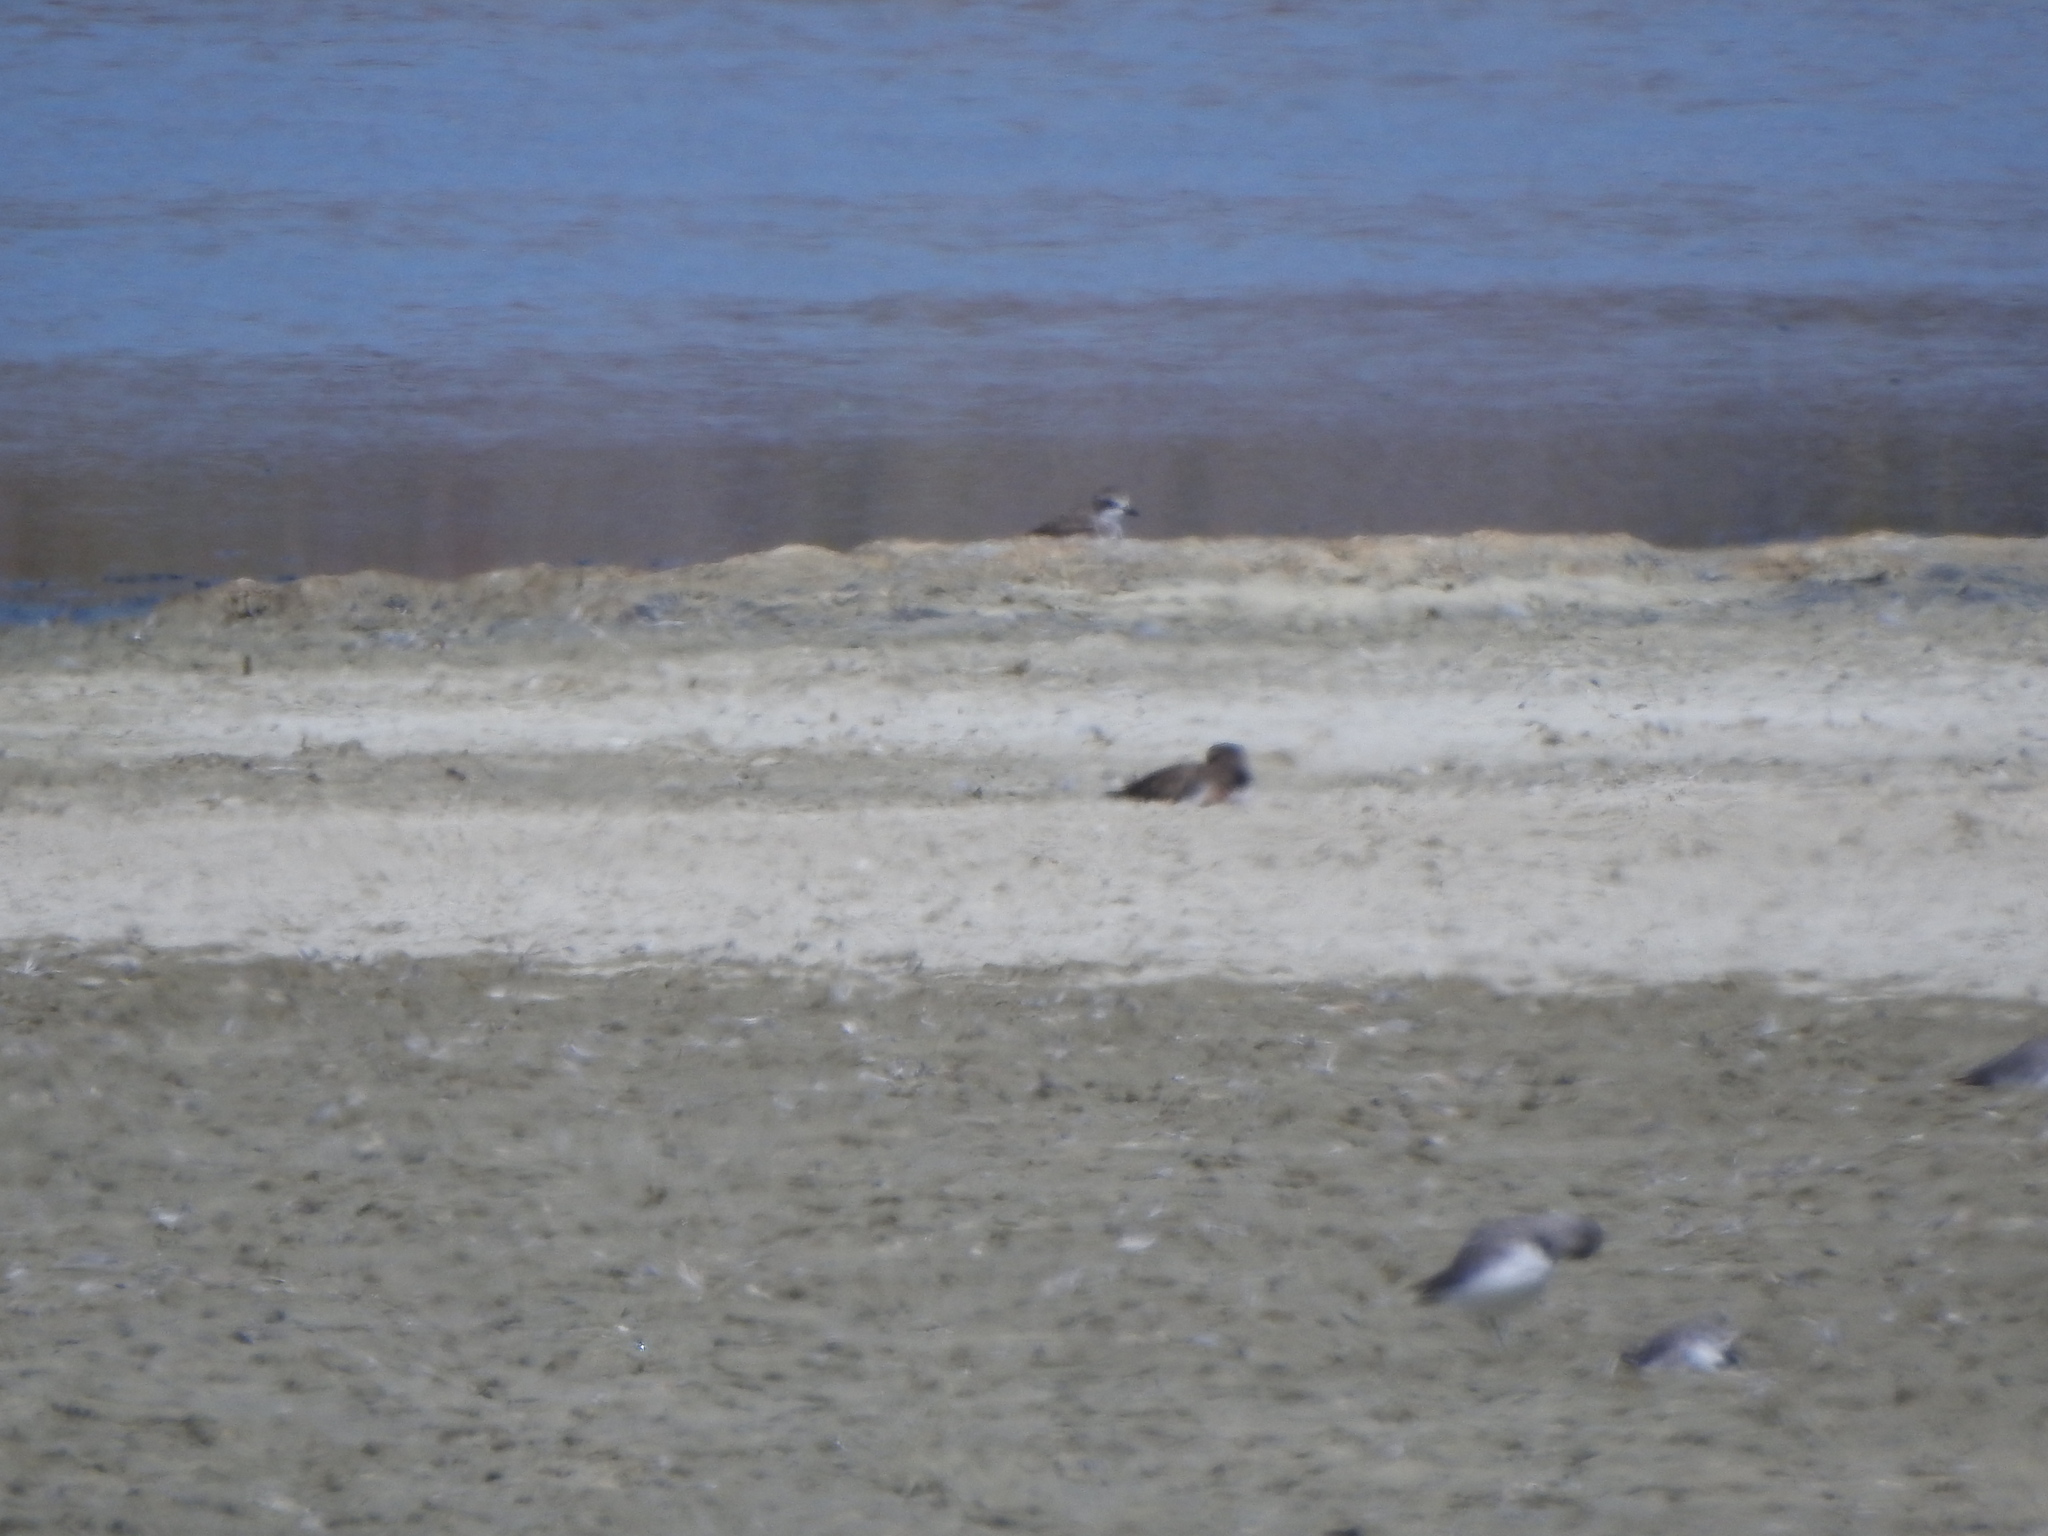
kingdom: Animalia
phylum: Chordata
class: Aves
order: Charadriiformes
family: Charadriidae
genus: Anarhynchus
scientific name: Anarhynchus
